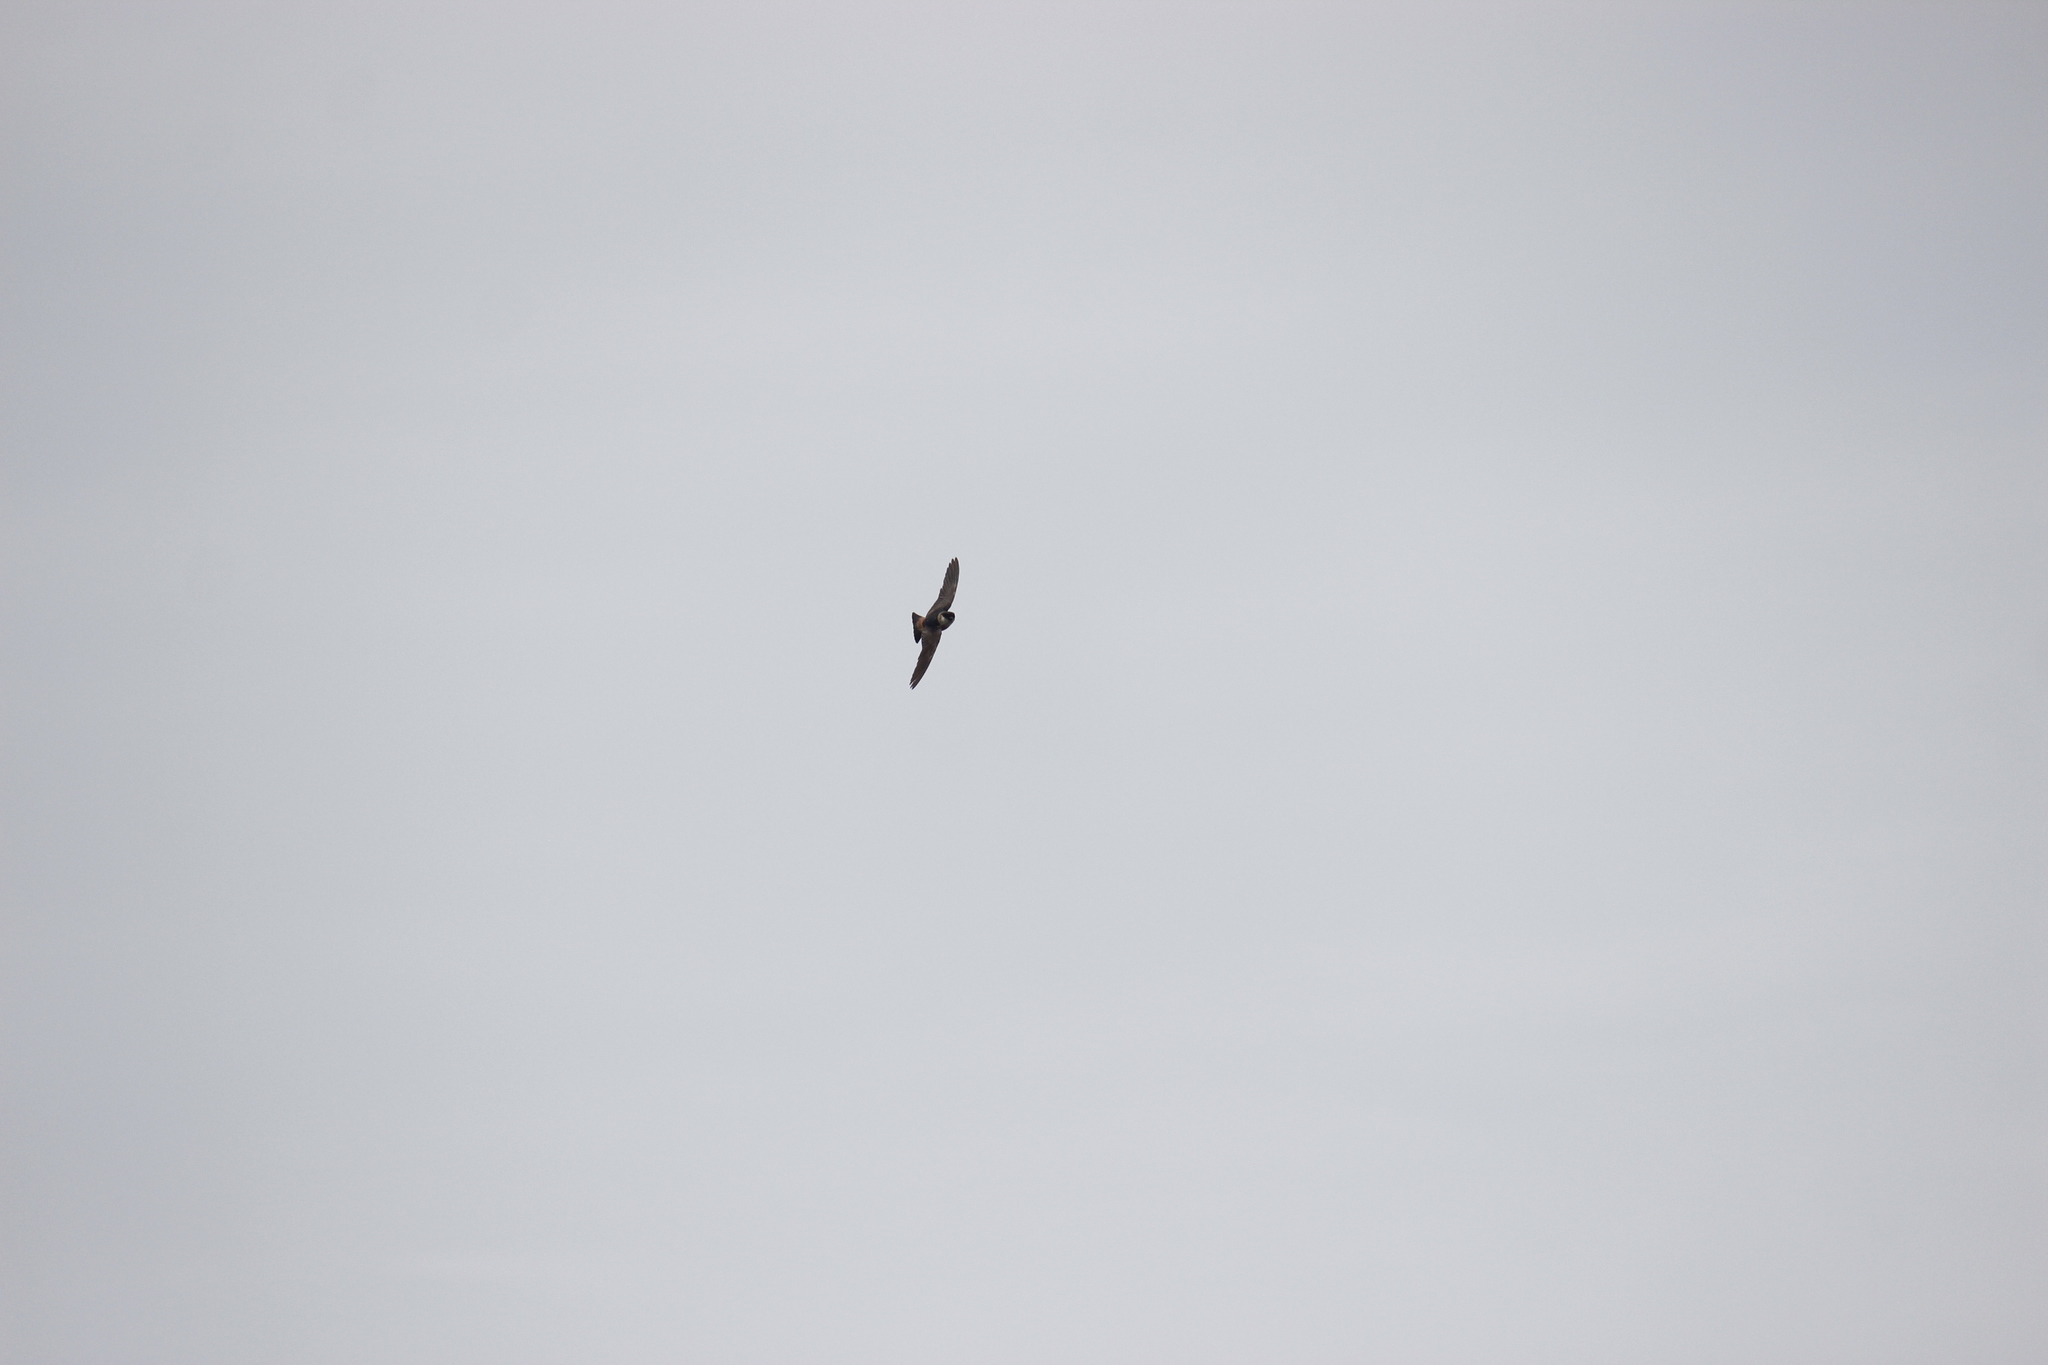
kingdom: Animalia
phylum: Chordata
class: Aves
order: Passeriformes
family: Hirundinidae
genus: Petrochelidon
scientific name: Petrochelidon rufocollaris
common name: Chestnut-collared swallow
